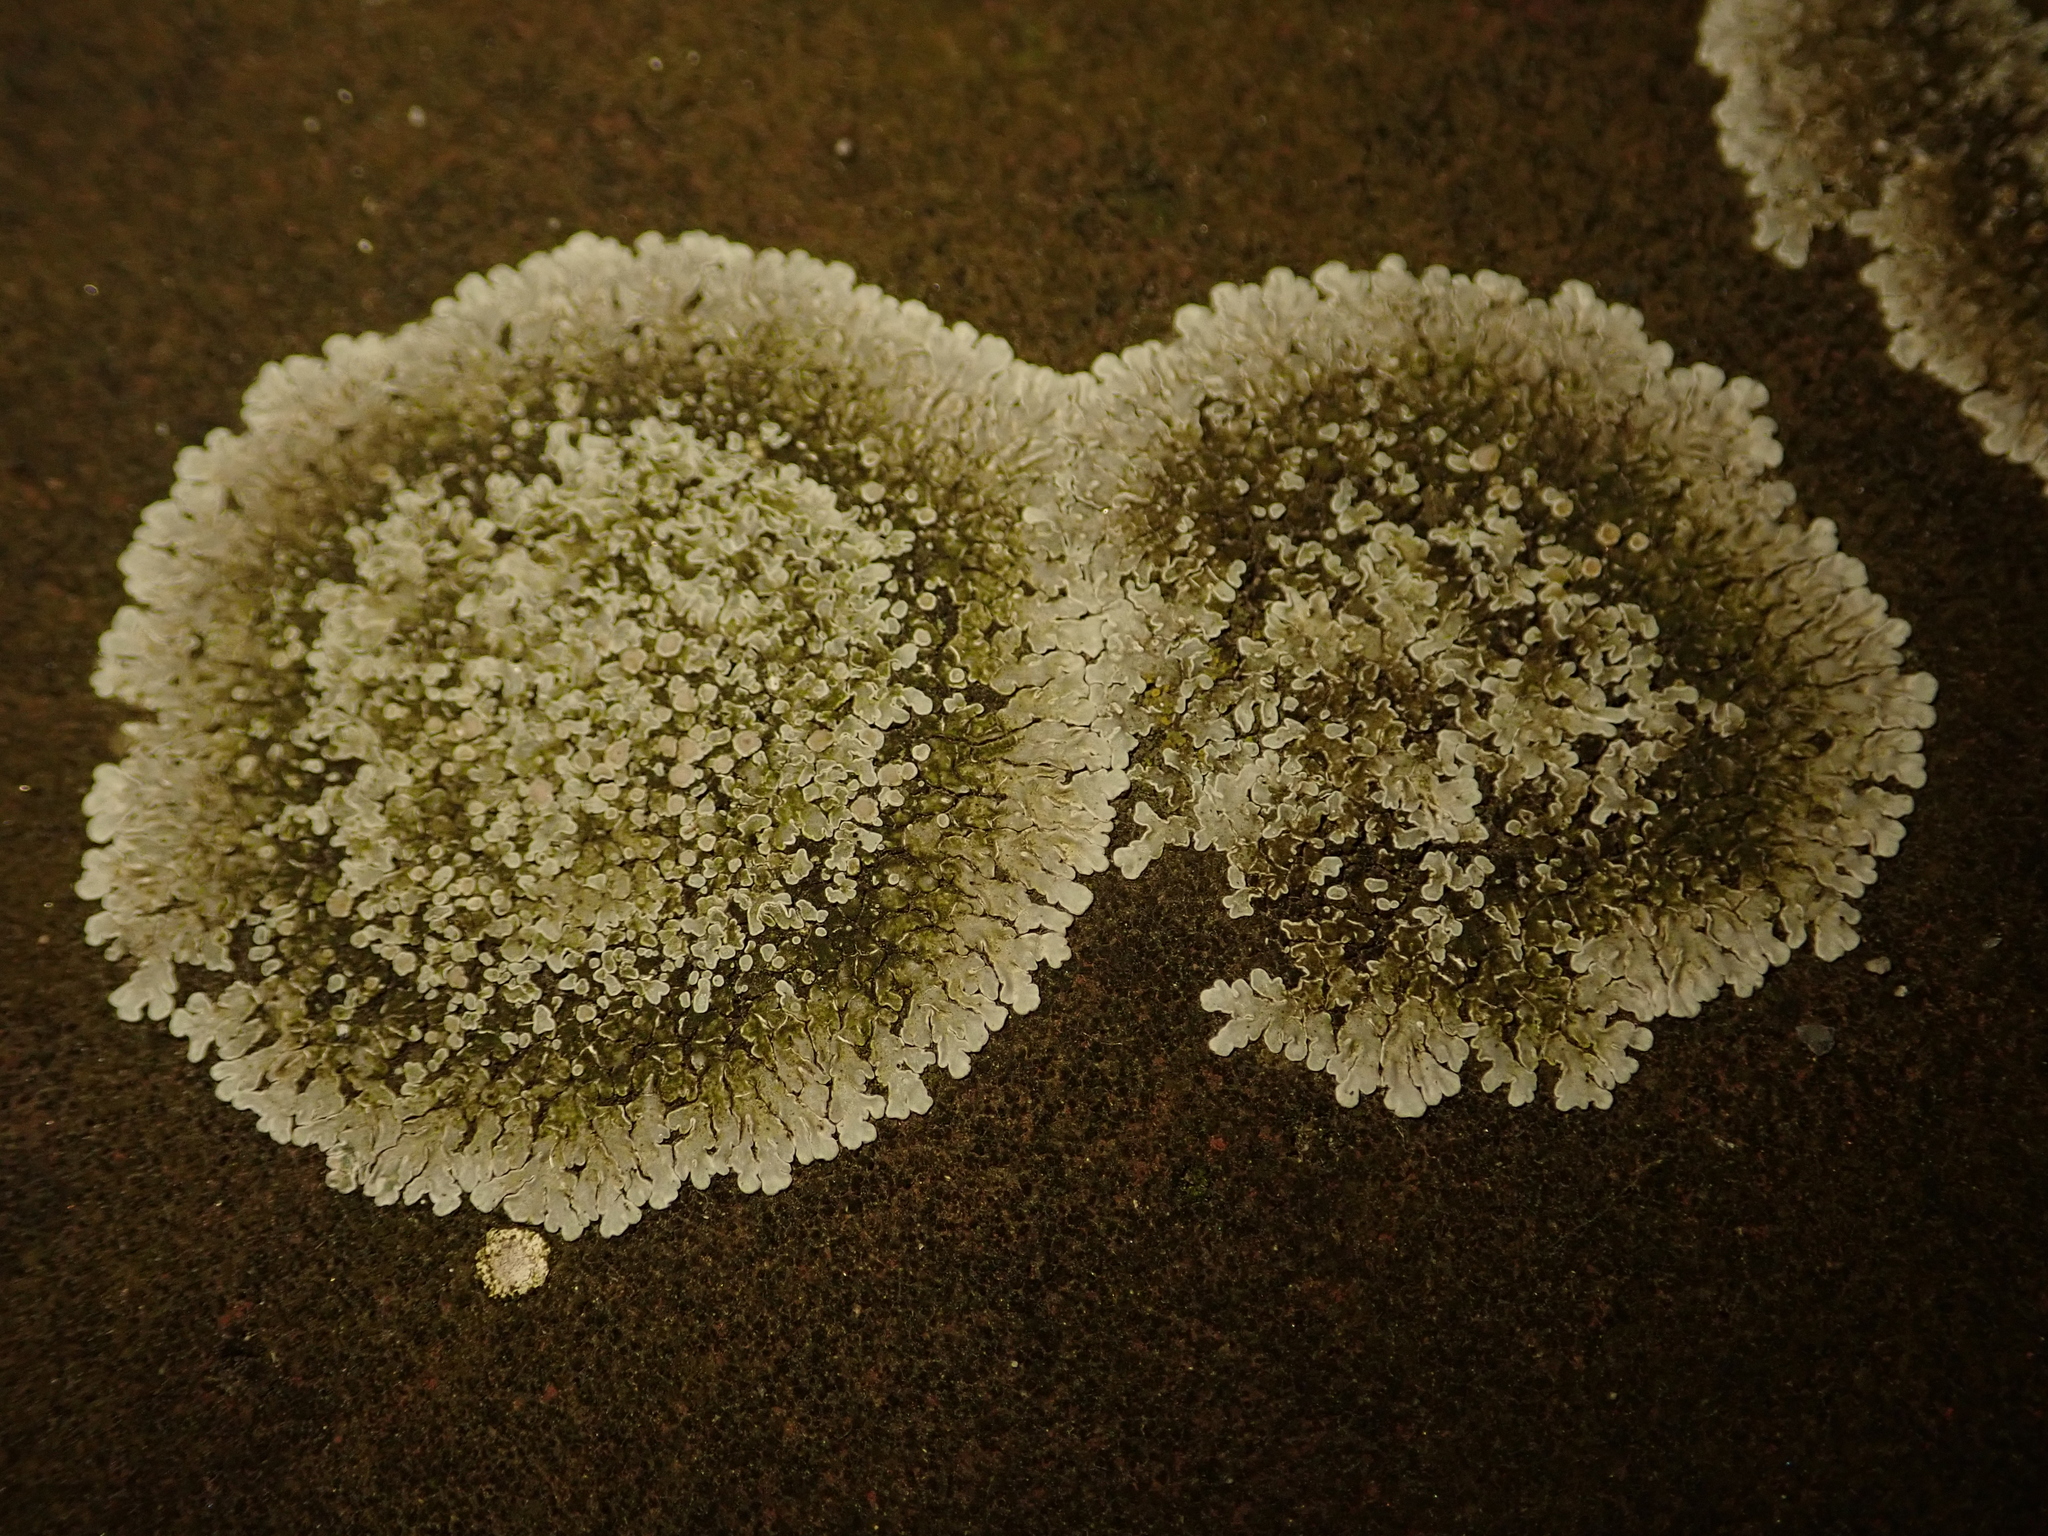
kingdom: Fungi
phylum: Ascomycota
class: Lecanoromycetes
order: Lecanorales
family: Lecanoraceae
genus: Protoparmeliopsis
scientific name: Protoparmeliopsis muralis
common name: Stonewall rim lichen
